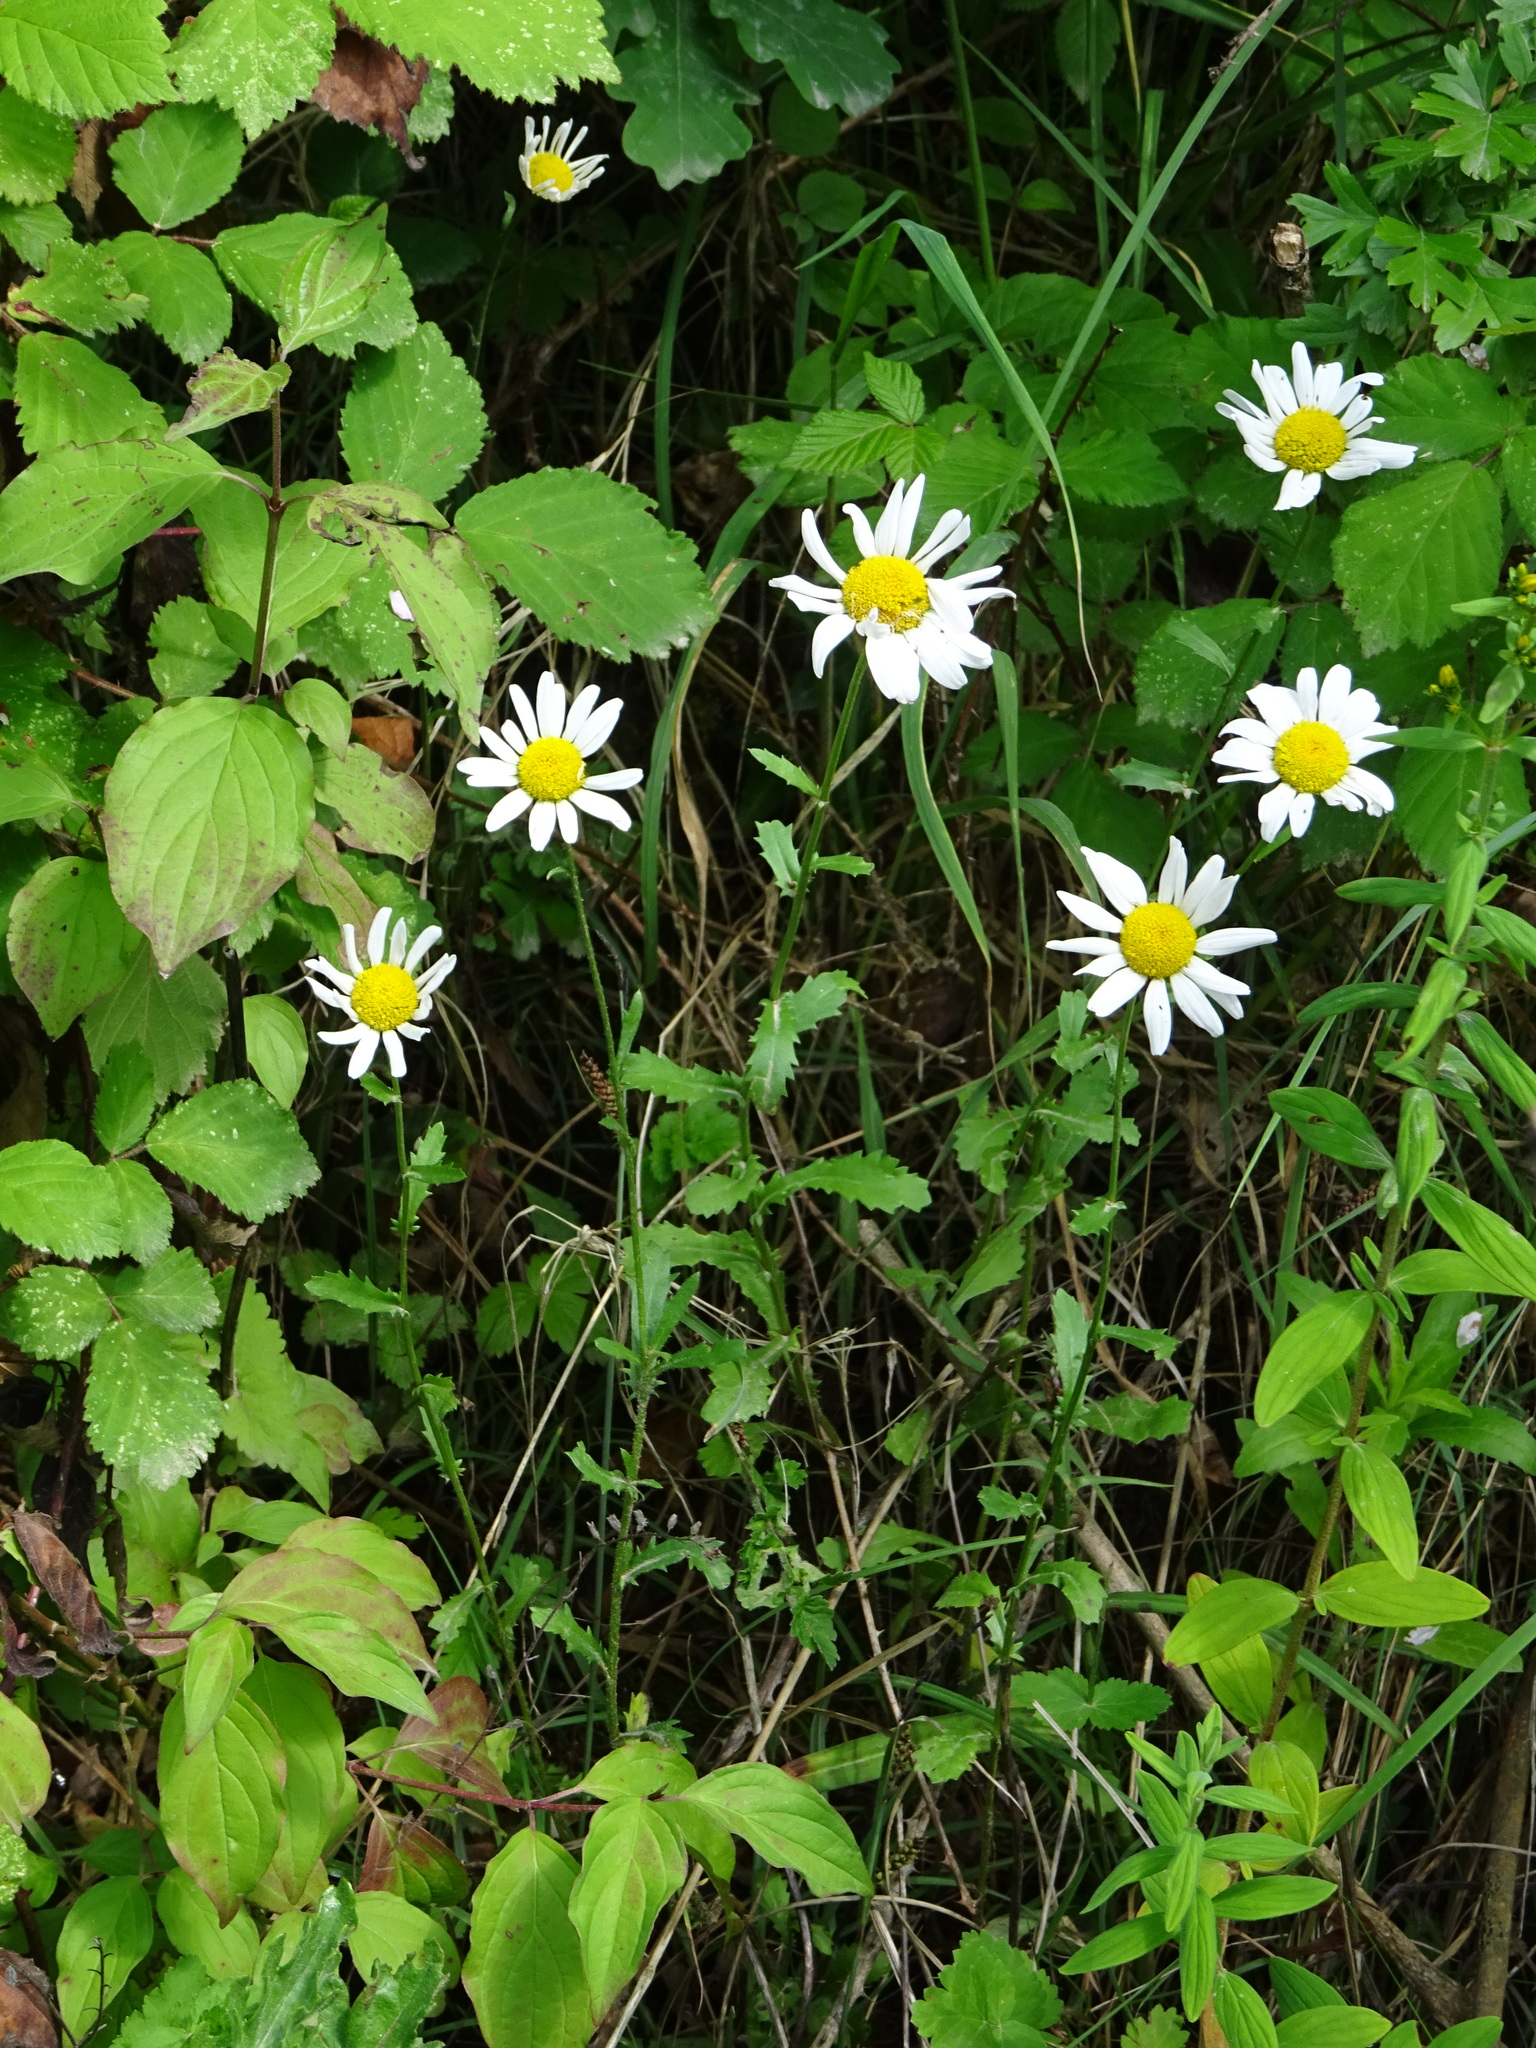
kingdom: Plantae
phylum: Tracheophyta
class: Magnoliopsida
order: Asterales
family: Asteraceae
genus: Leucanthemum
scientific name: Leucanthemum vulgare
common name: Oxeye daisy
